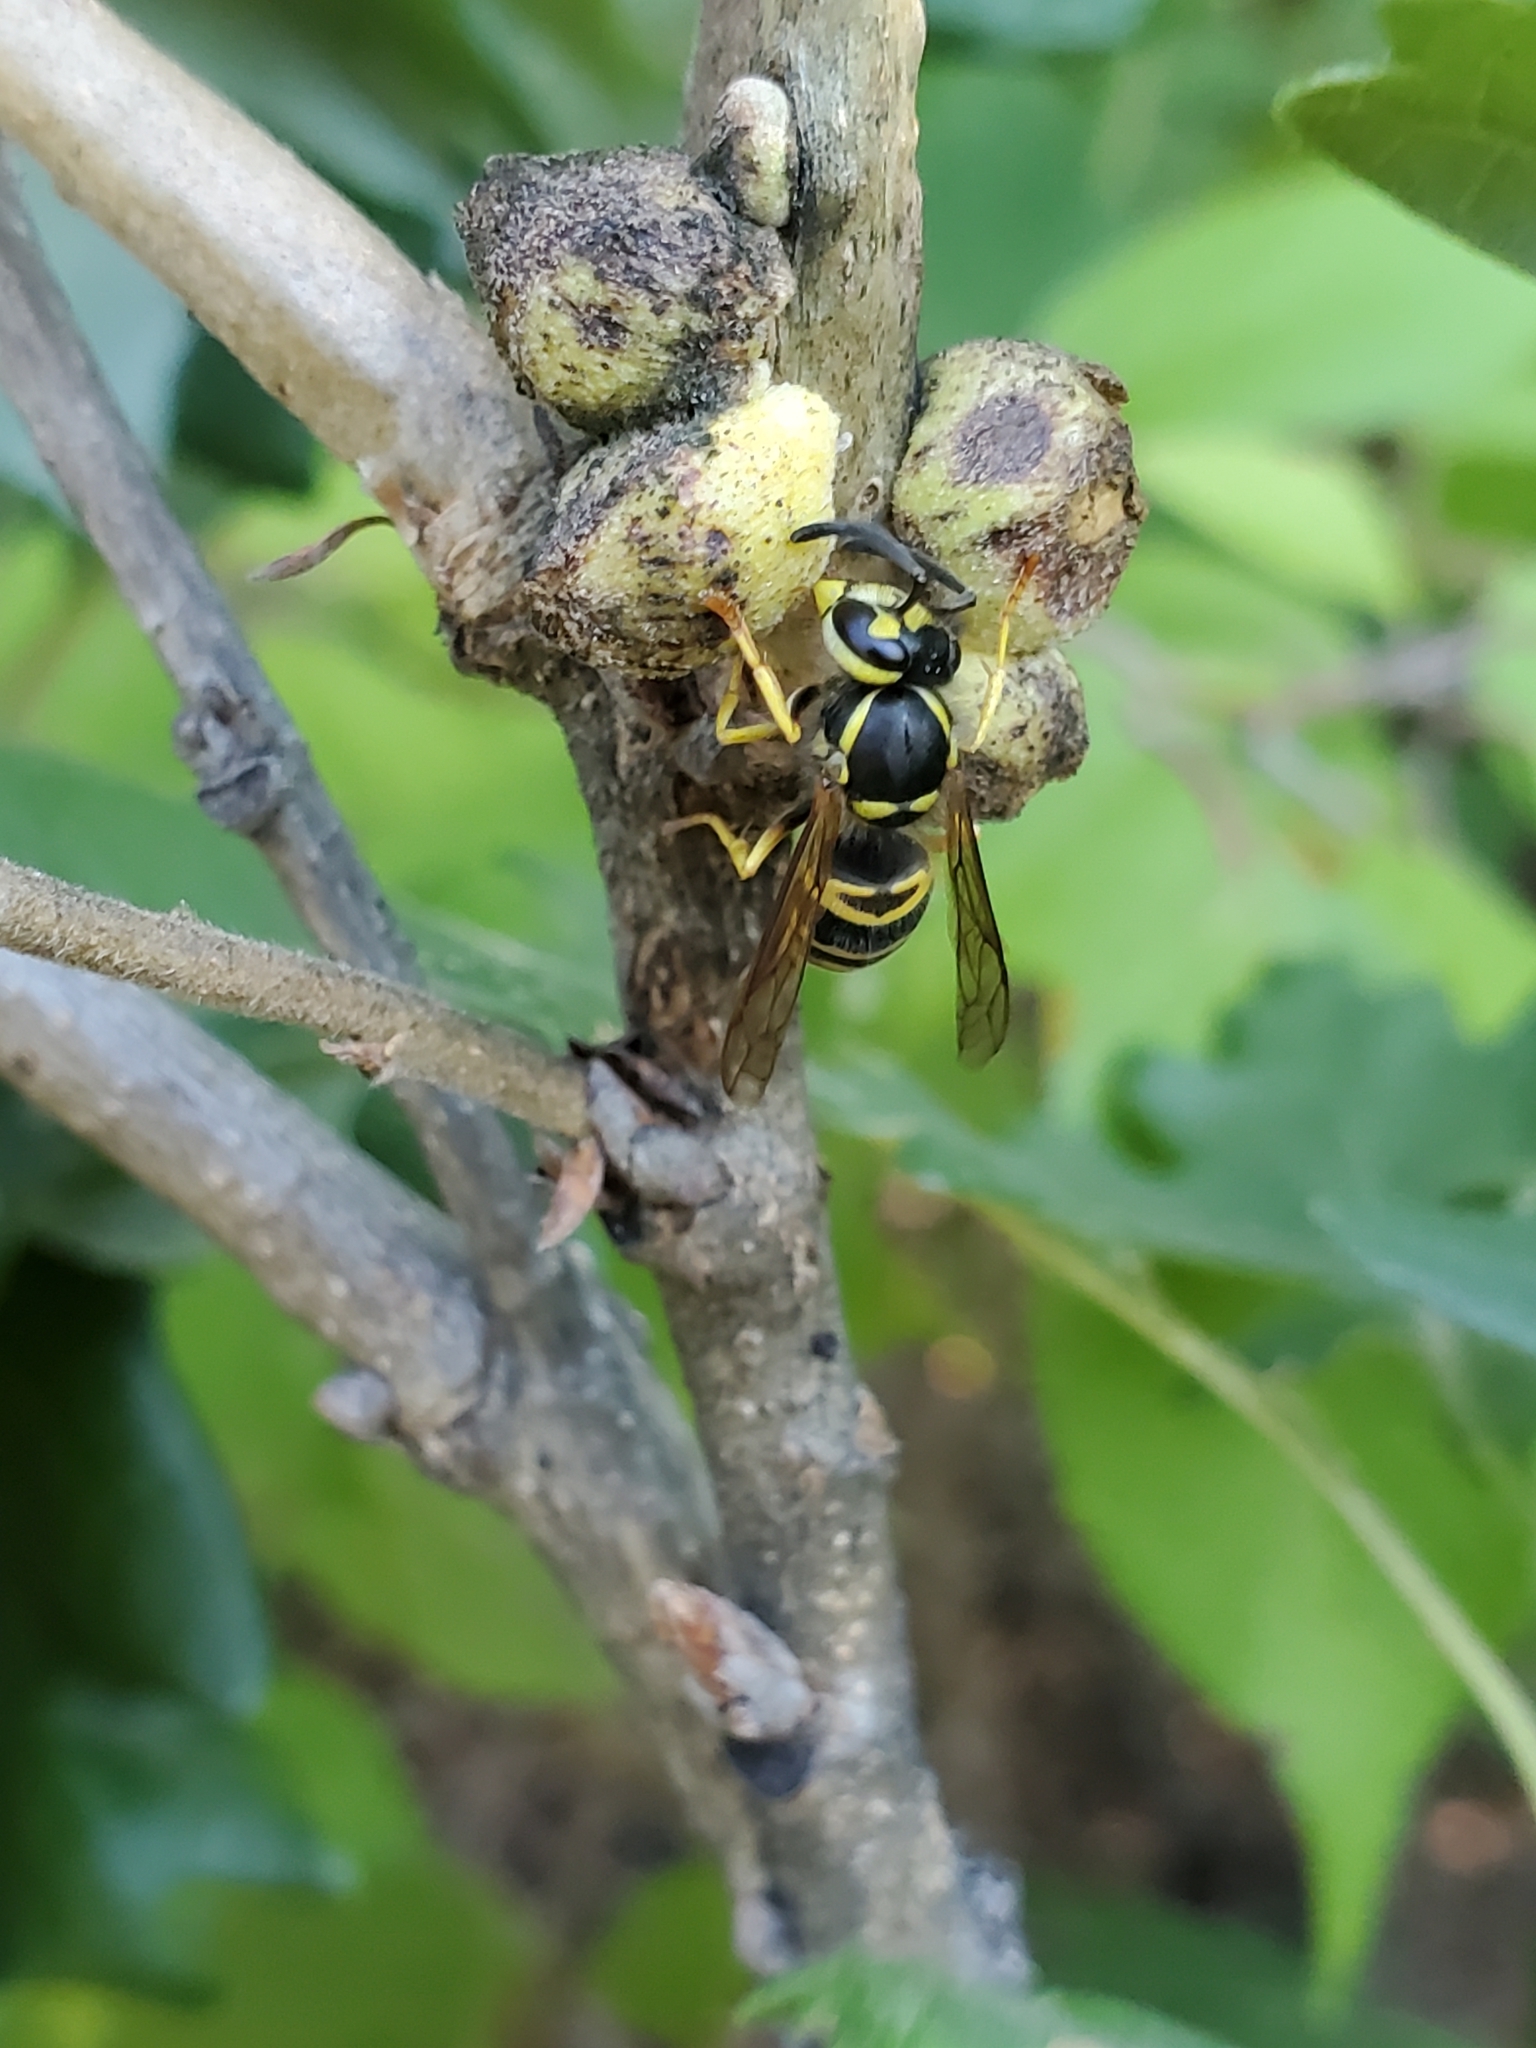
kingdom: Animalia
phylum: Arthropoda
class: Insecta
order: Hymenoptera
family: Vespidae
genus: Vespula
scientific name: Vespula maculifrons
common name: Eastern yellowjacket
